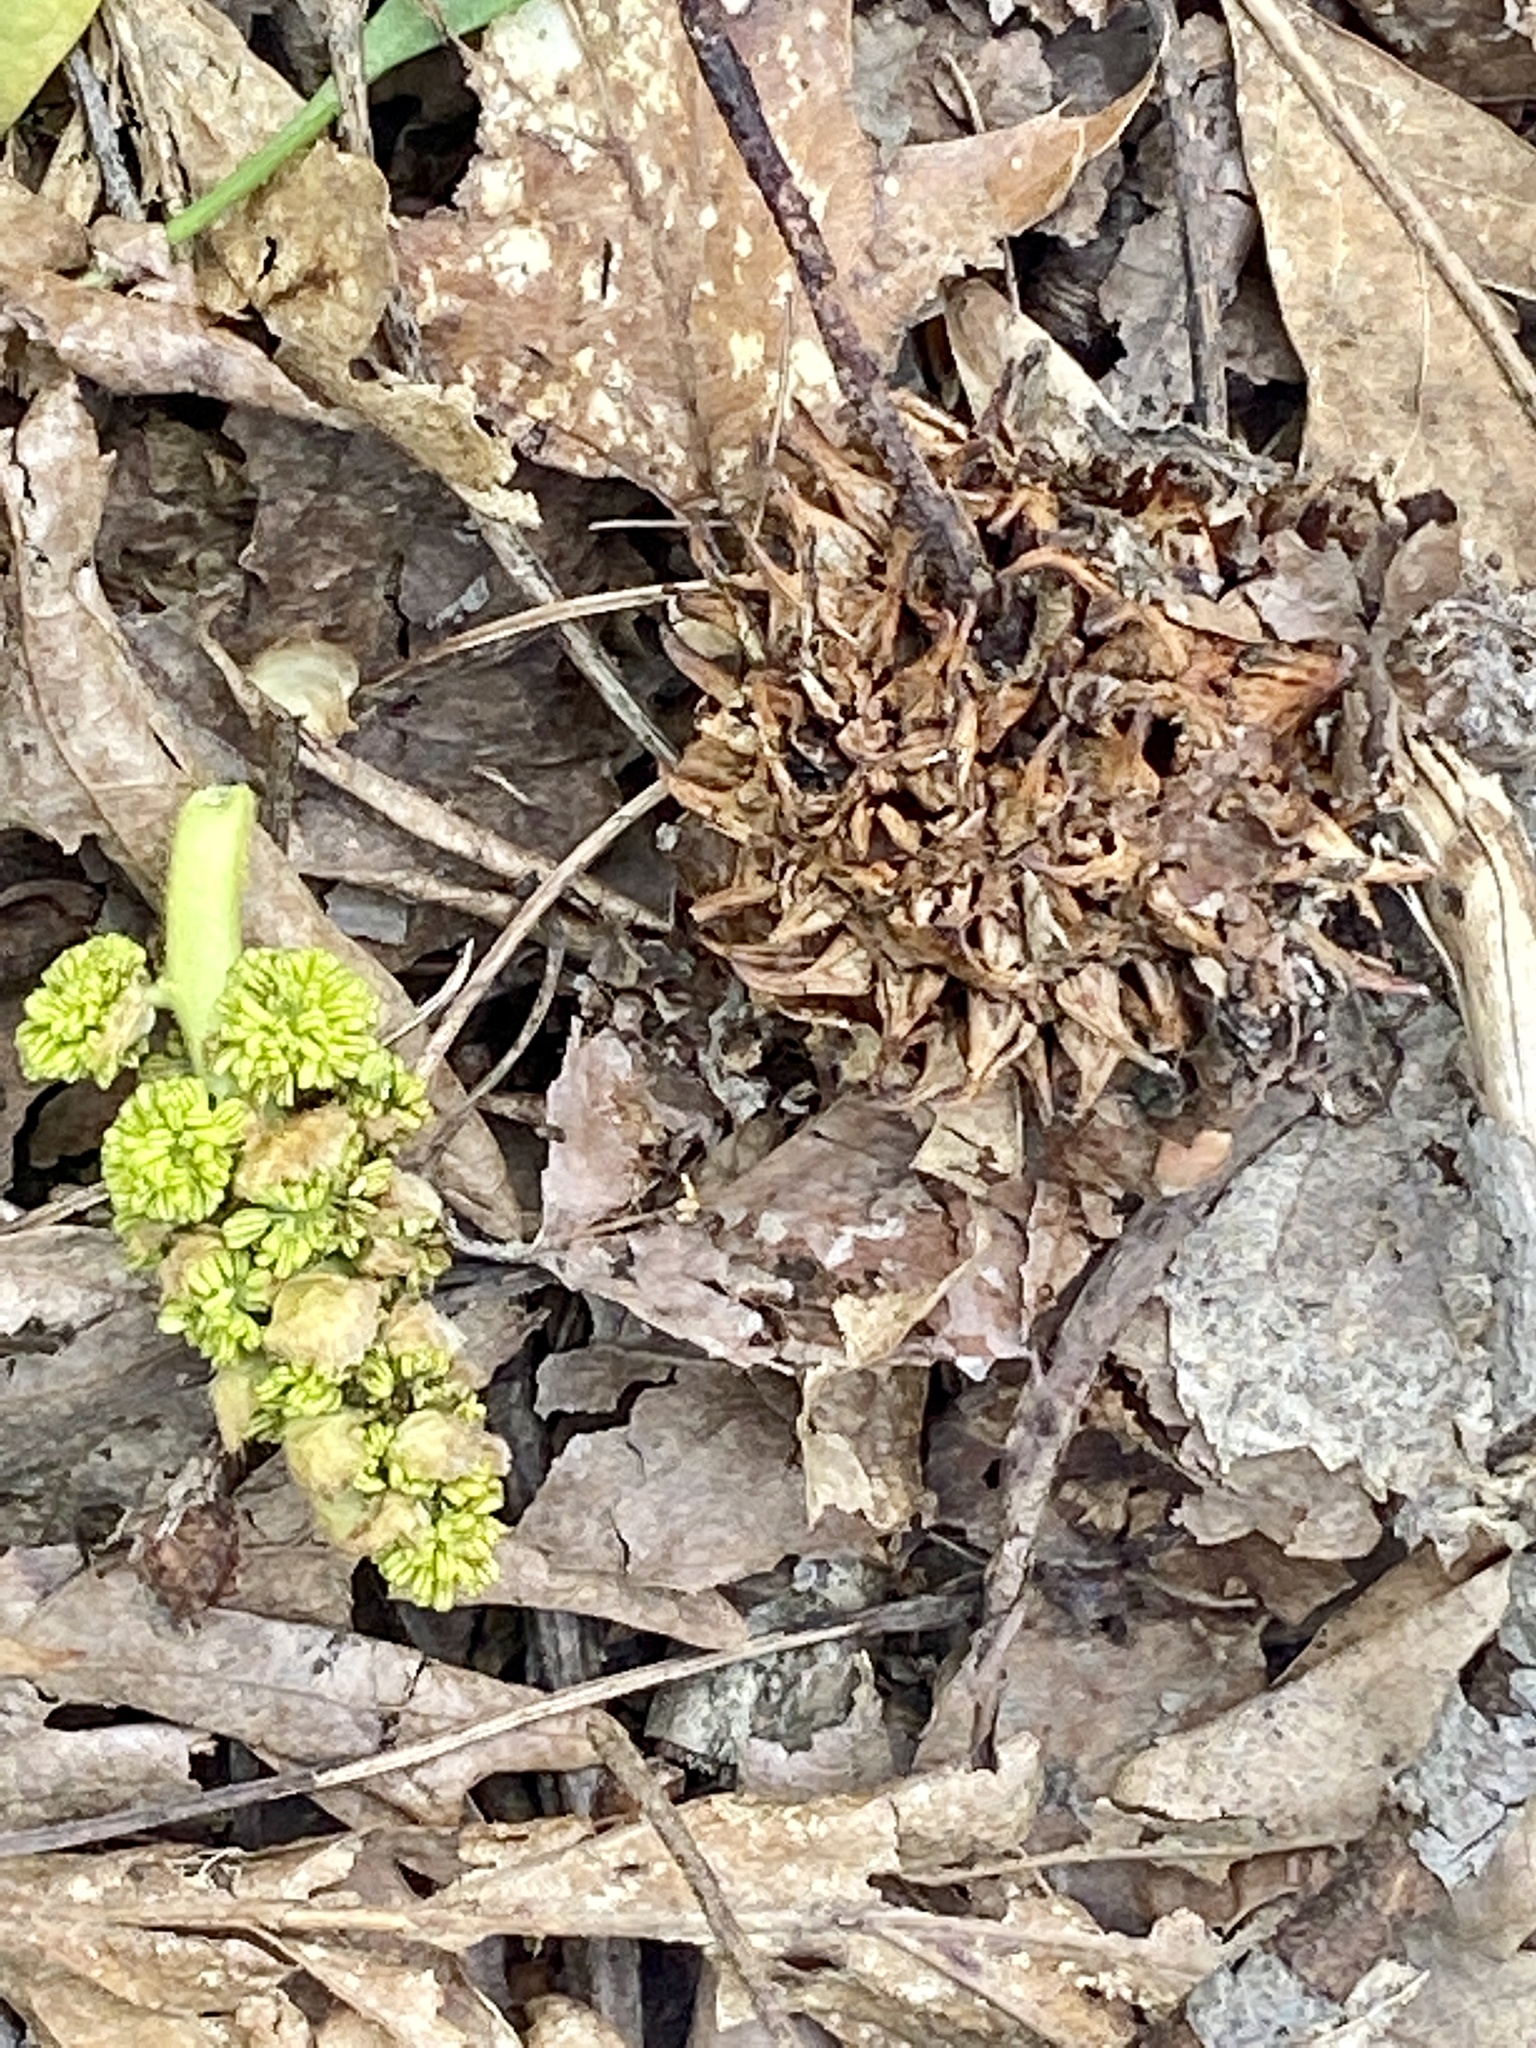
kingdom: Plantae
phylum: Tracheophyta
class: Magnoliopsida
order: Saxifragales
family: Altingiaceae
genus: Liquidambar
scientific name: Liquidambar styraciflua
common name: Sweet gum
